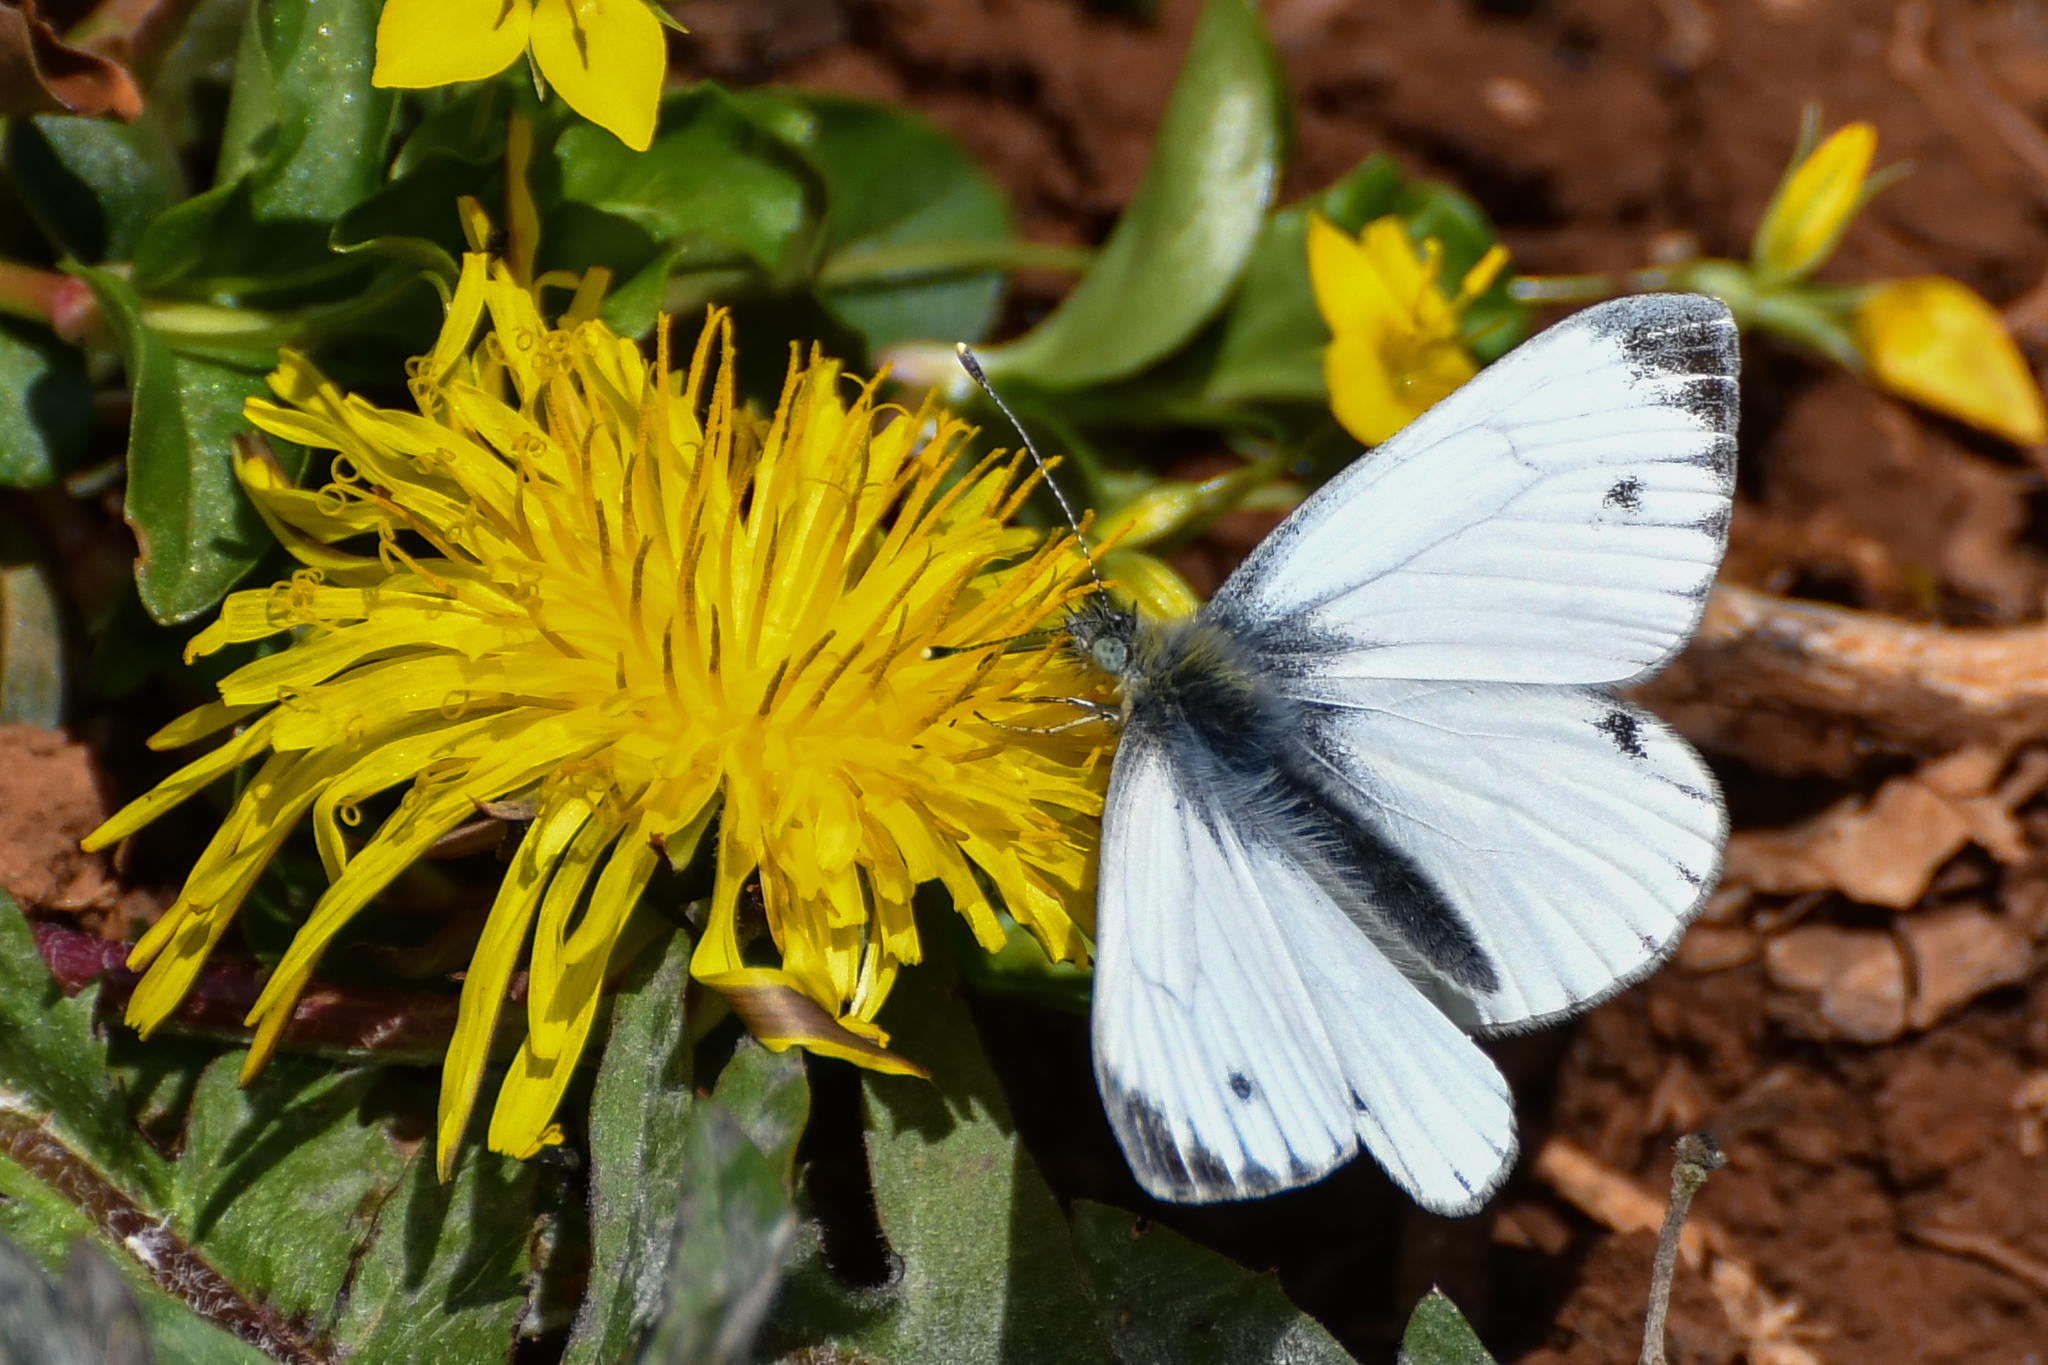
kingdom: Animalia
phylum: Arthropoda
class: Insecta
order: Lepidoptera
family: Pieridae
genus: Pieris
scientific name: Pieris napi
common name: Green-veined white
